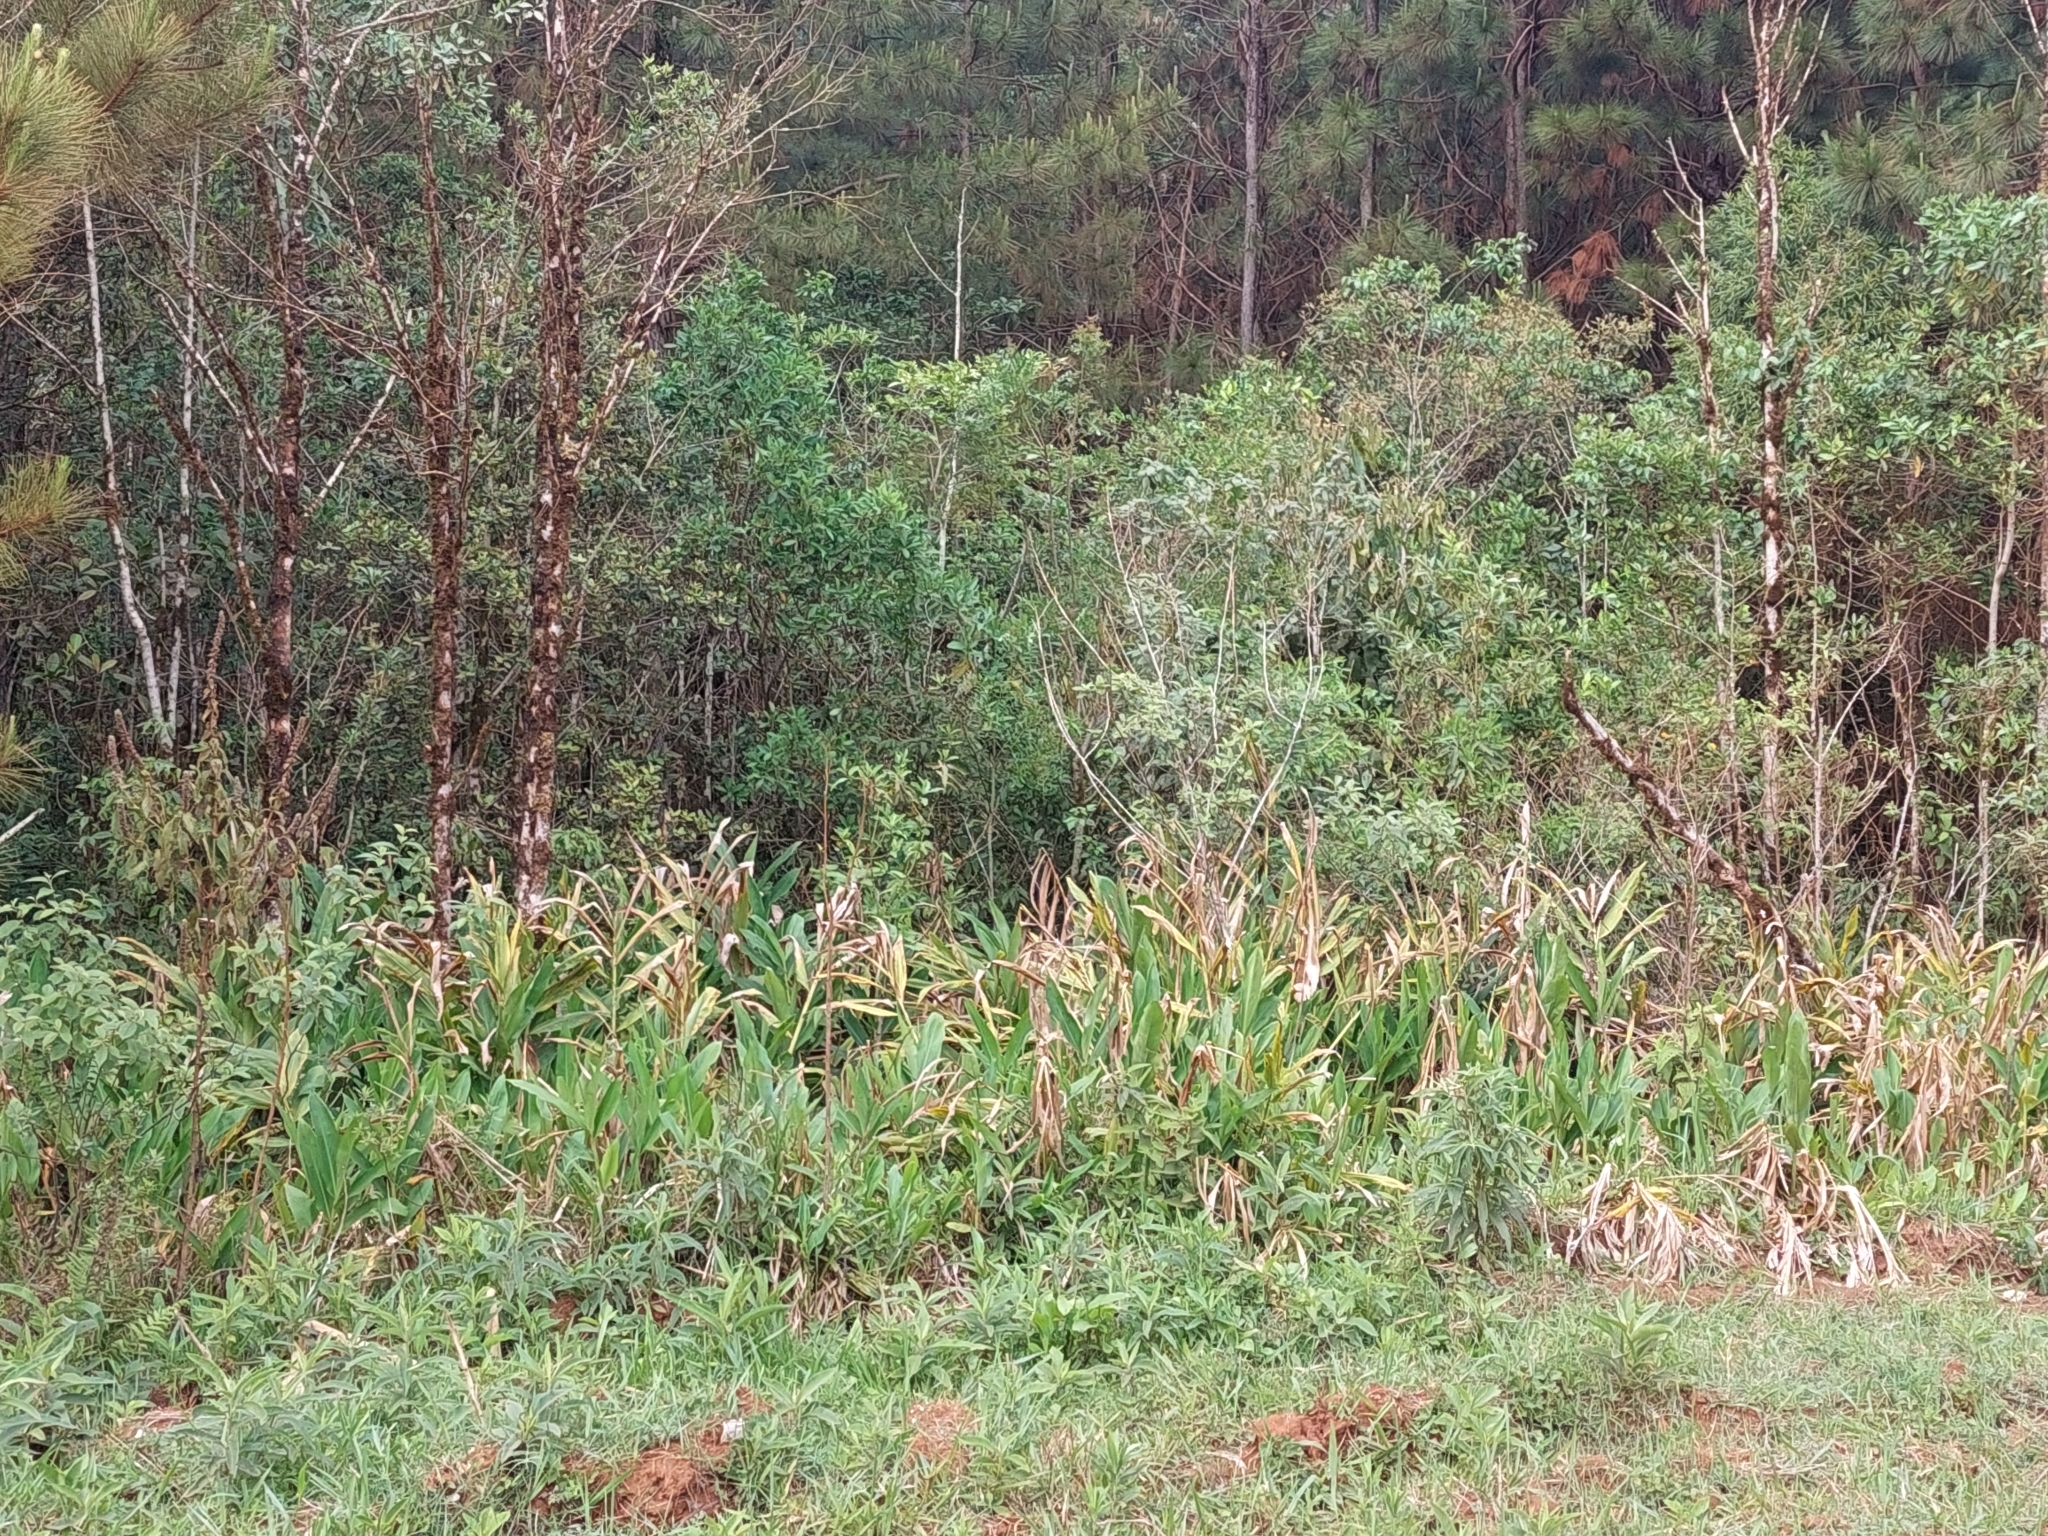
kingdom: Plantae
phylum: Tracheophyta
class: Liliopsida
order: Zingiberales
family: Zingiberaceae
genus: Hedychium
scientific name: Hedychium coronarium
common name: White garland-lily
